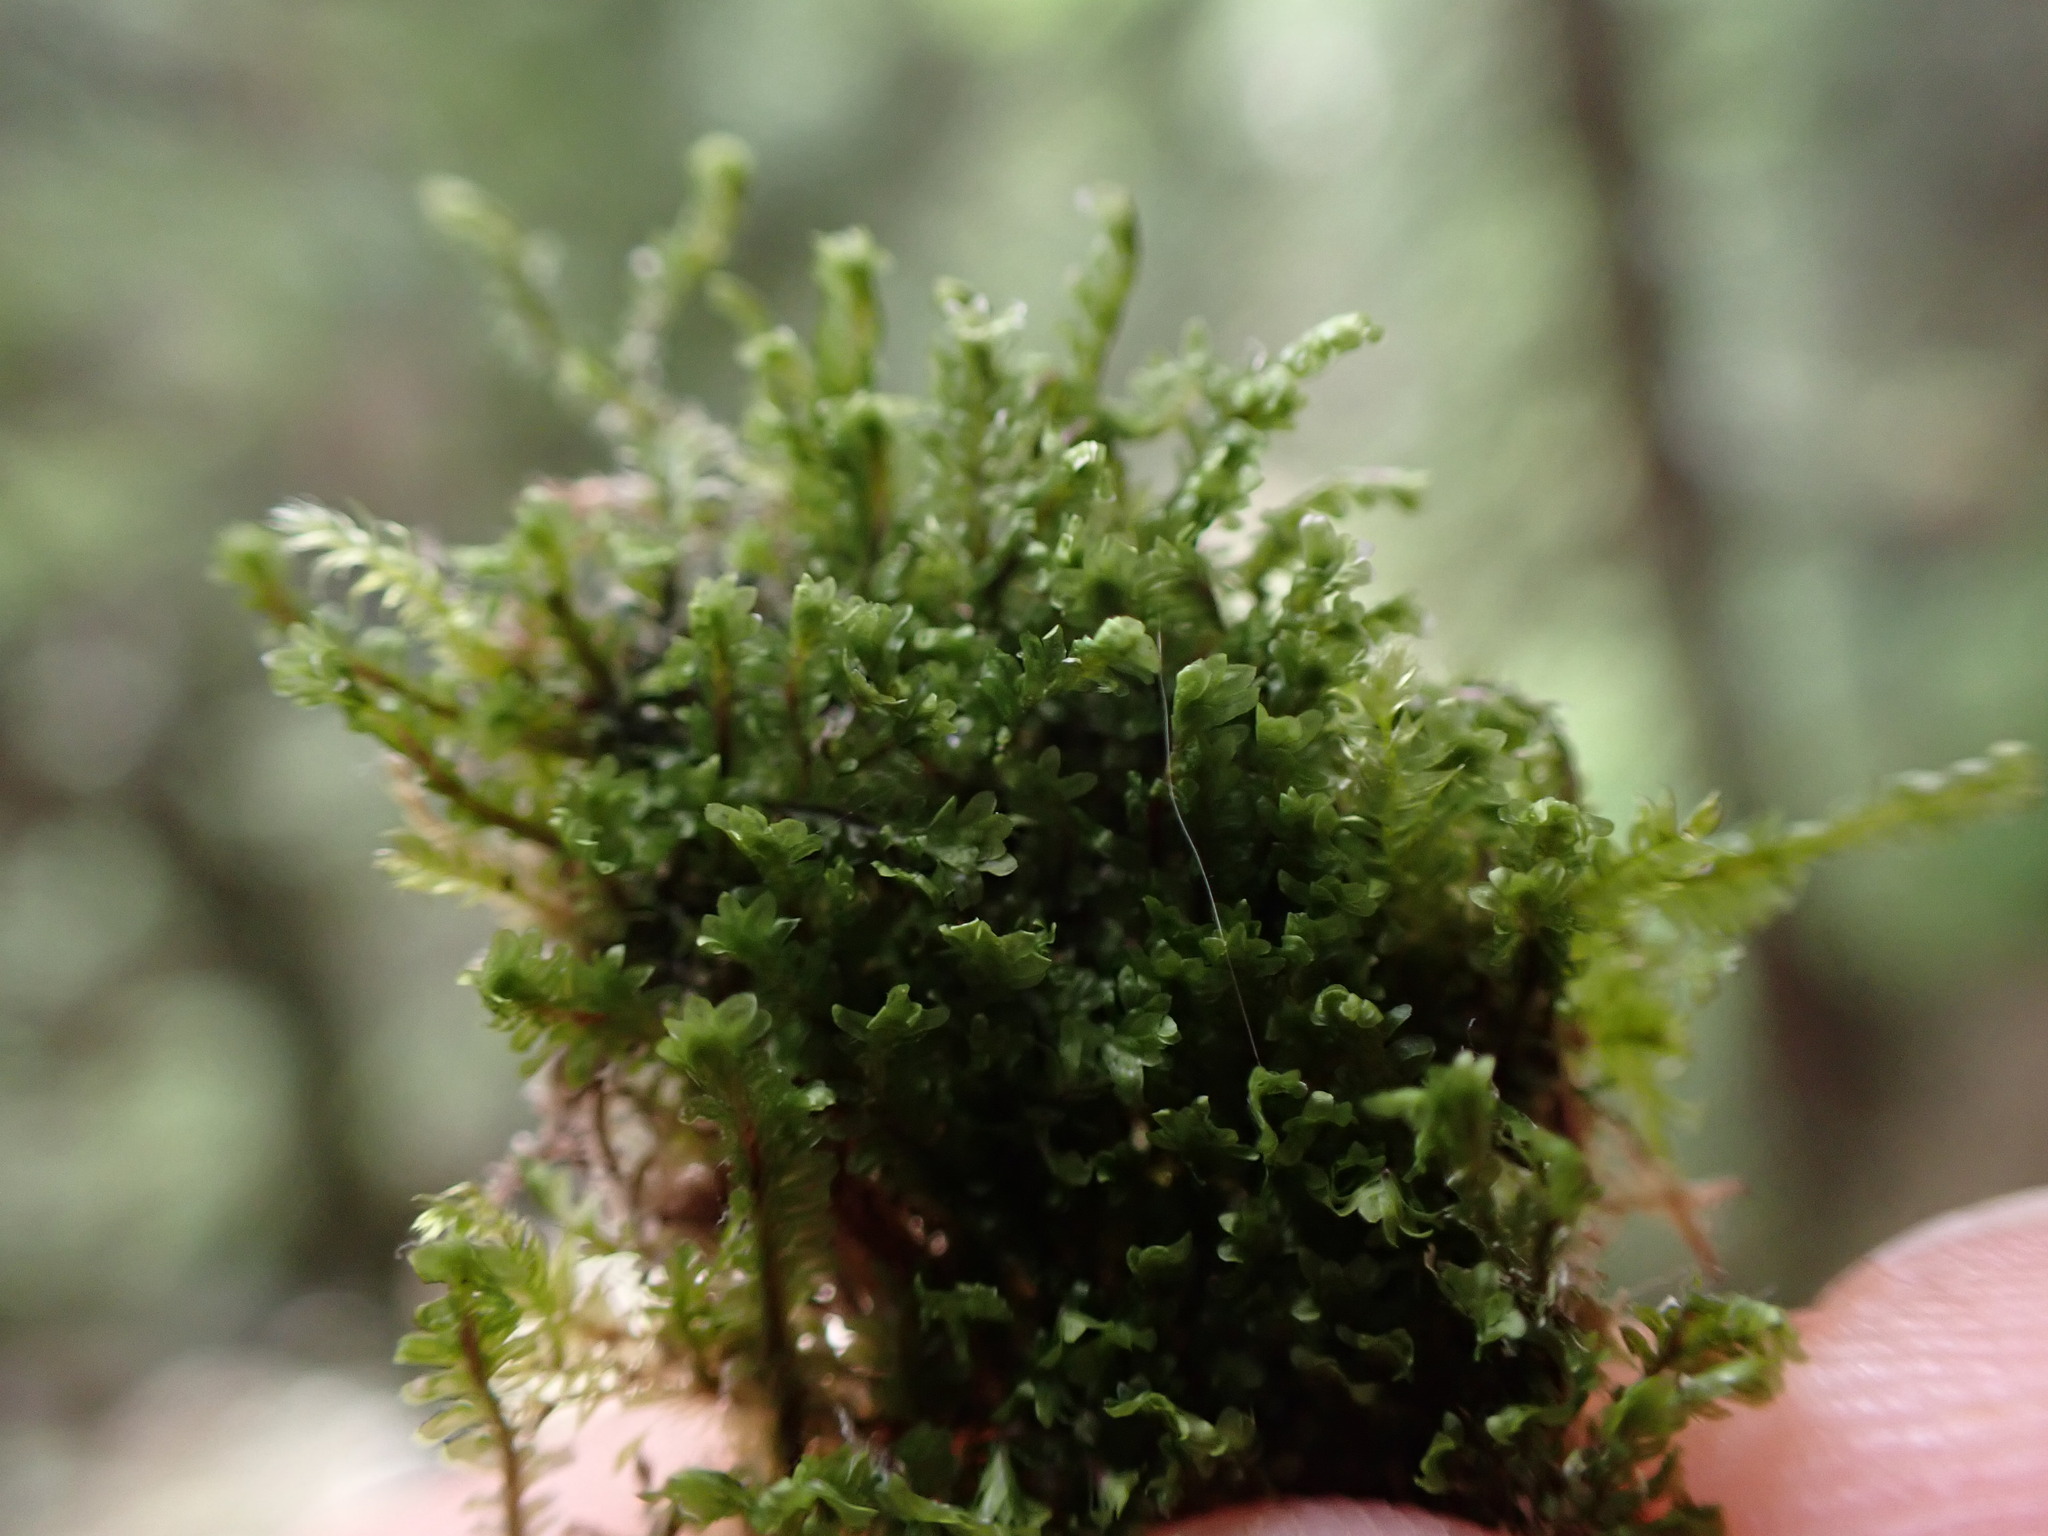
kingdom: Plantae
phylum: Marchantiophyta
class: Jungermanniopsida
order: Jungermanniales
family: Scapaniaceae
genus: Diplophyllum
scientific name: Diplophyllum albicans
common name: White earwort
